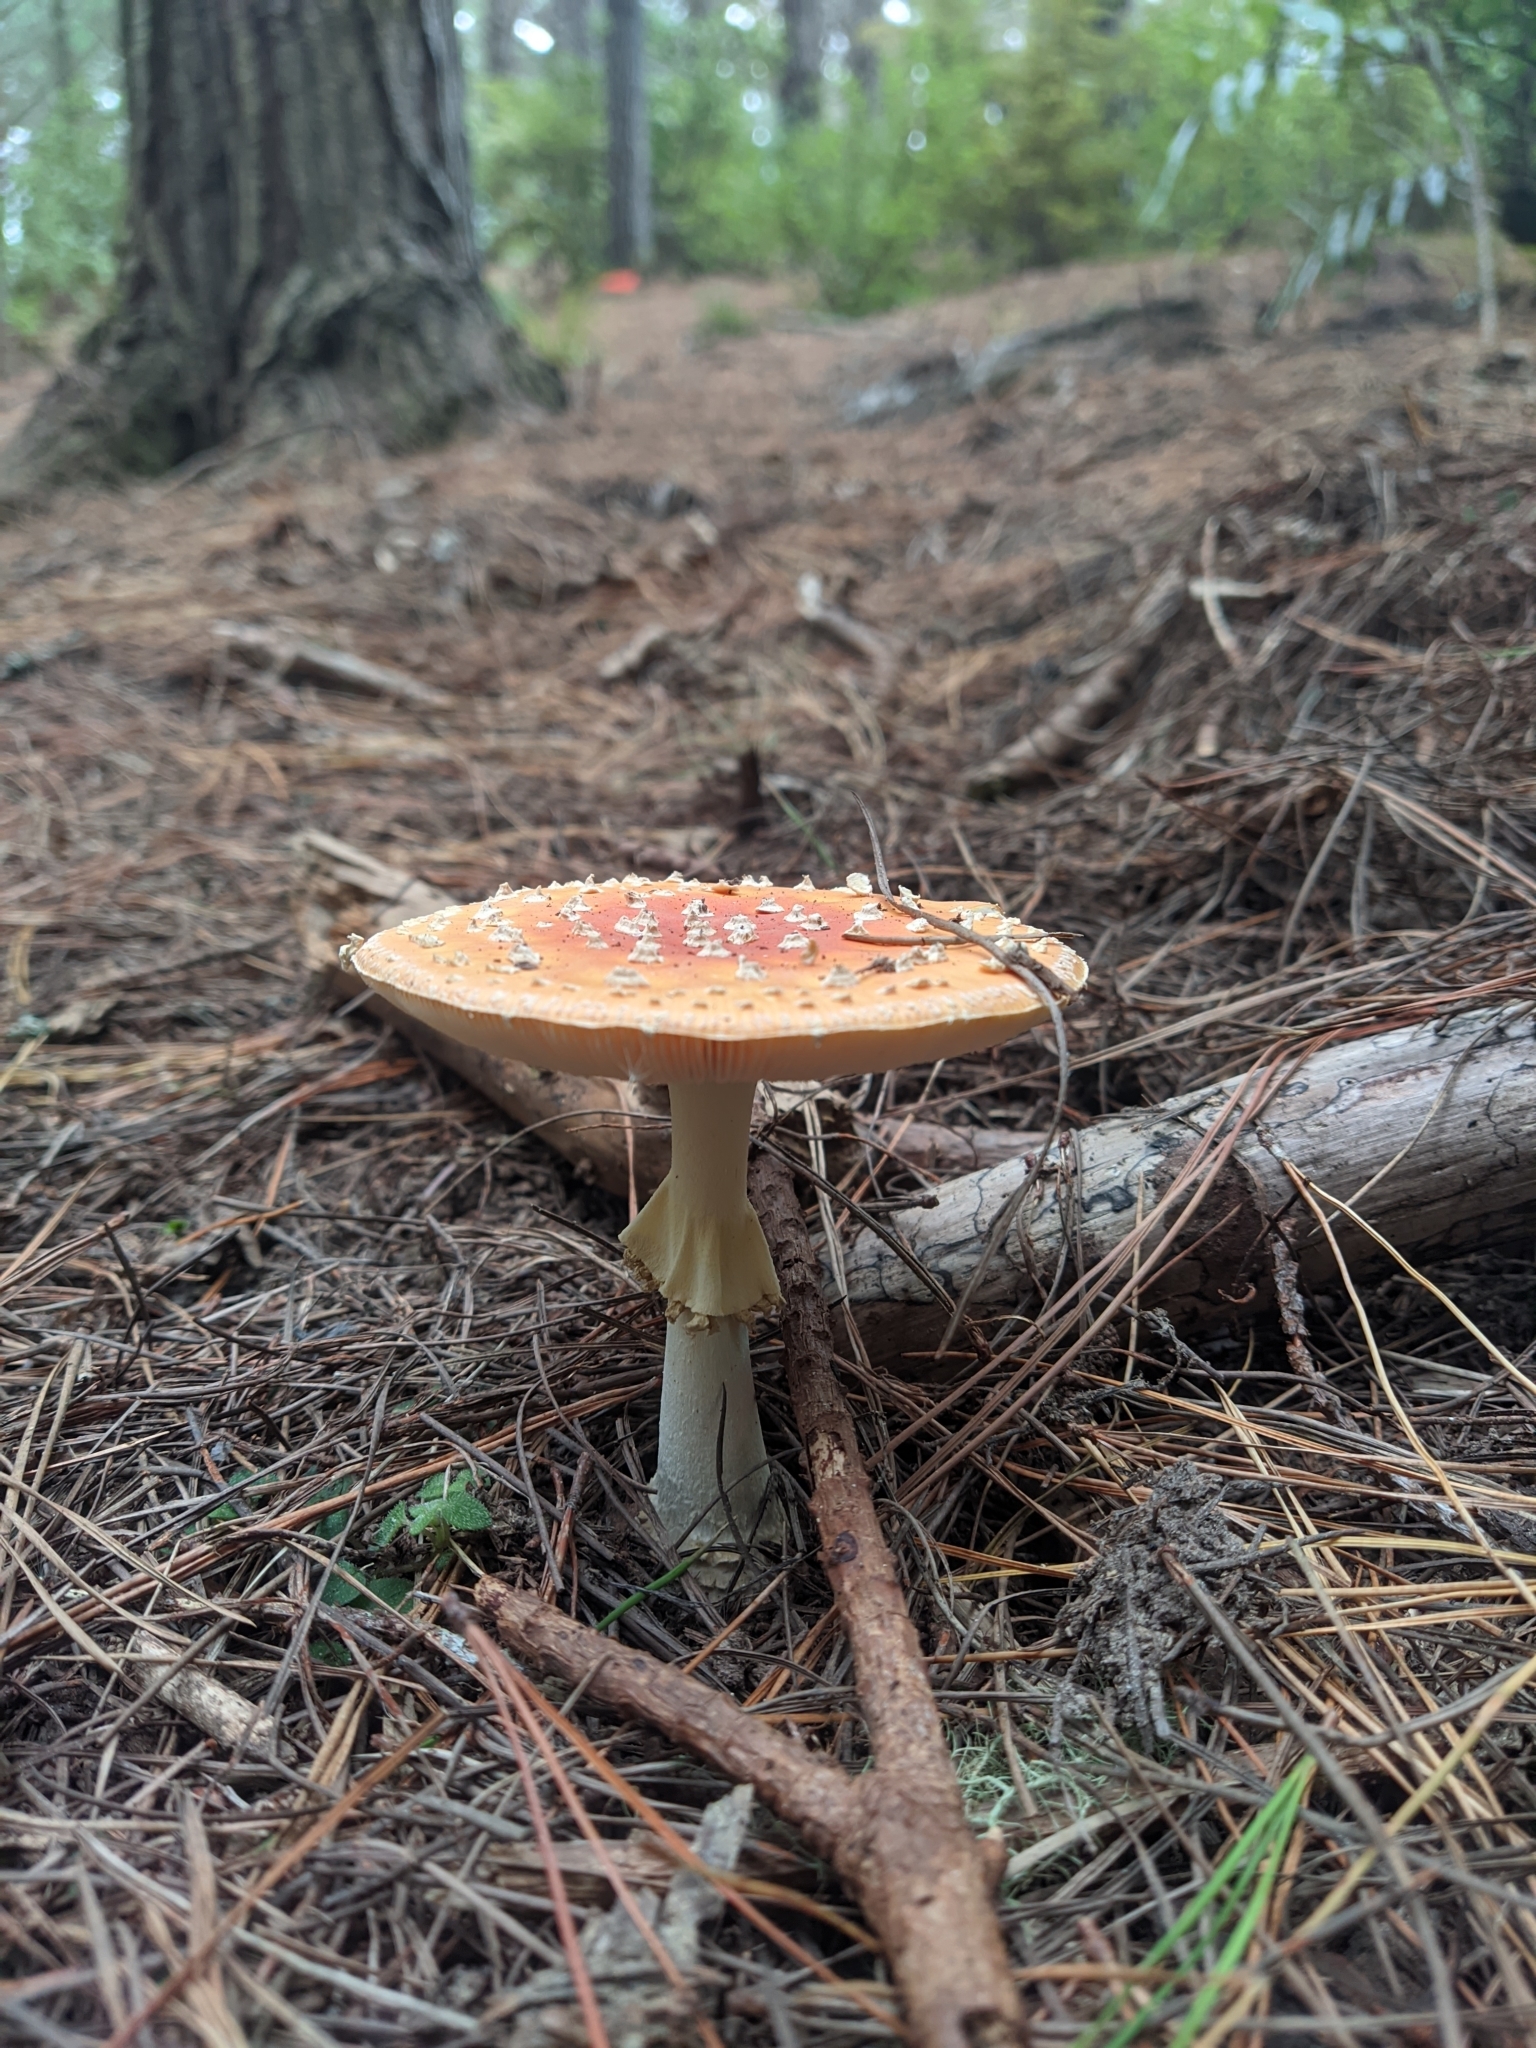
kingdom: Fungi
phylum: Basidiomycota
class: Agaricomycetes
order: Agaricales
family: Amanitaceae
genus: Amanita
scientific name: Amanita muscaria
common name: Fly agaric
